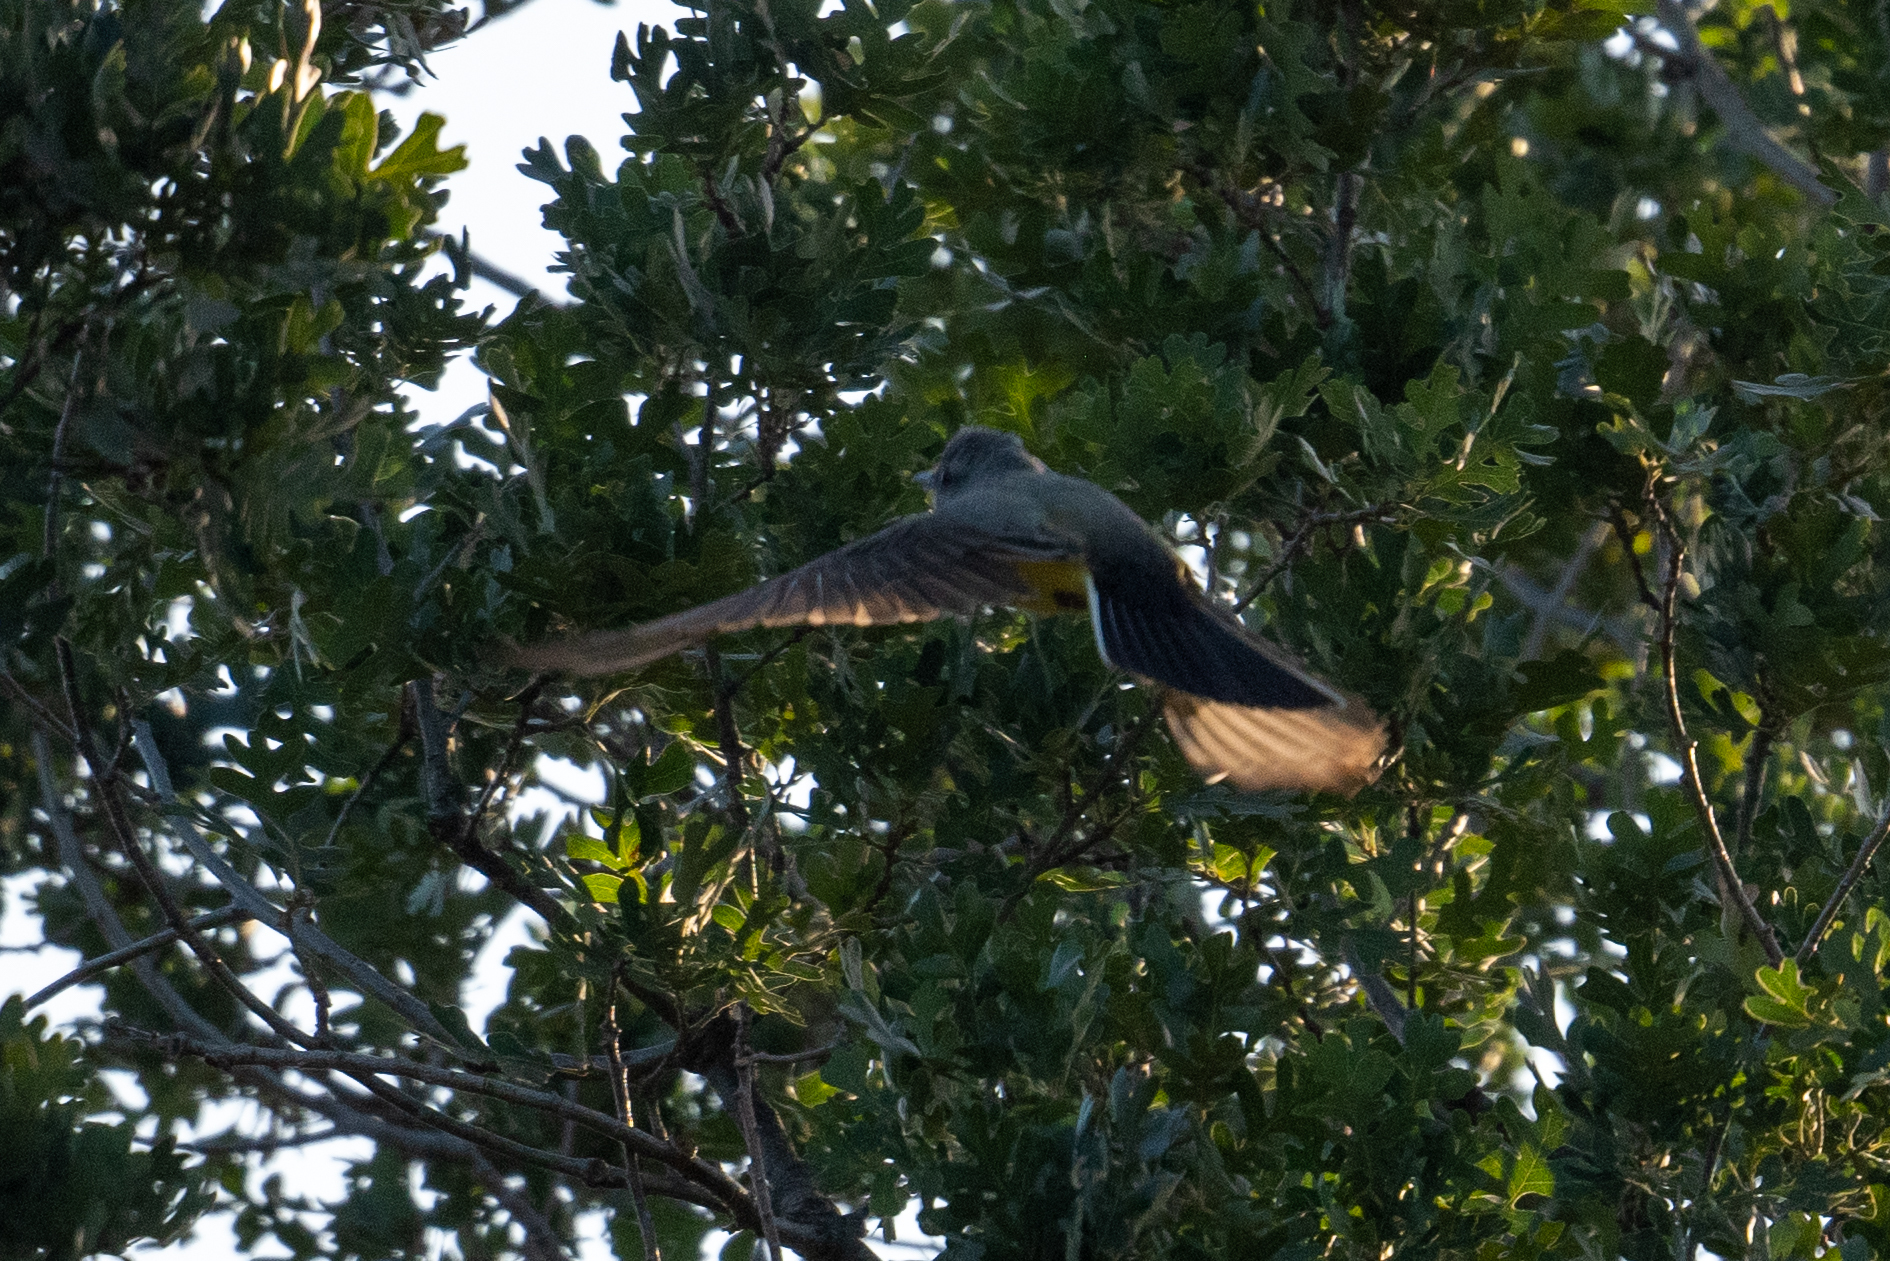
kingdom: Animalia
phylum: Chordata
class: Aves
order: Passeriformes
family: Tyrannidae
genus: Tyrannus
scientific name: Tyrannus verticalis
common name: Western kingbird
